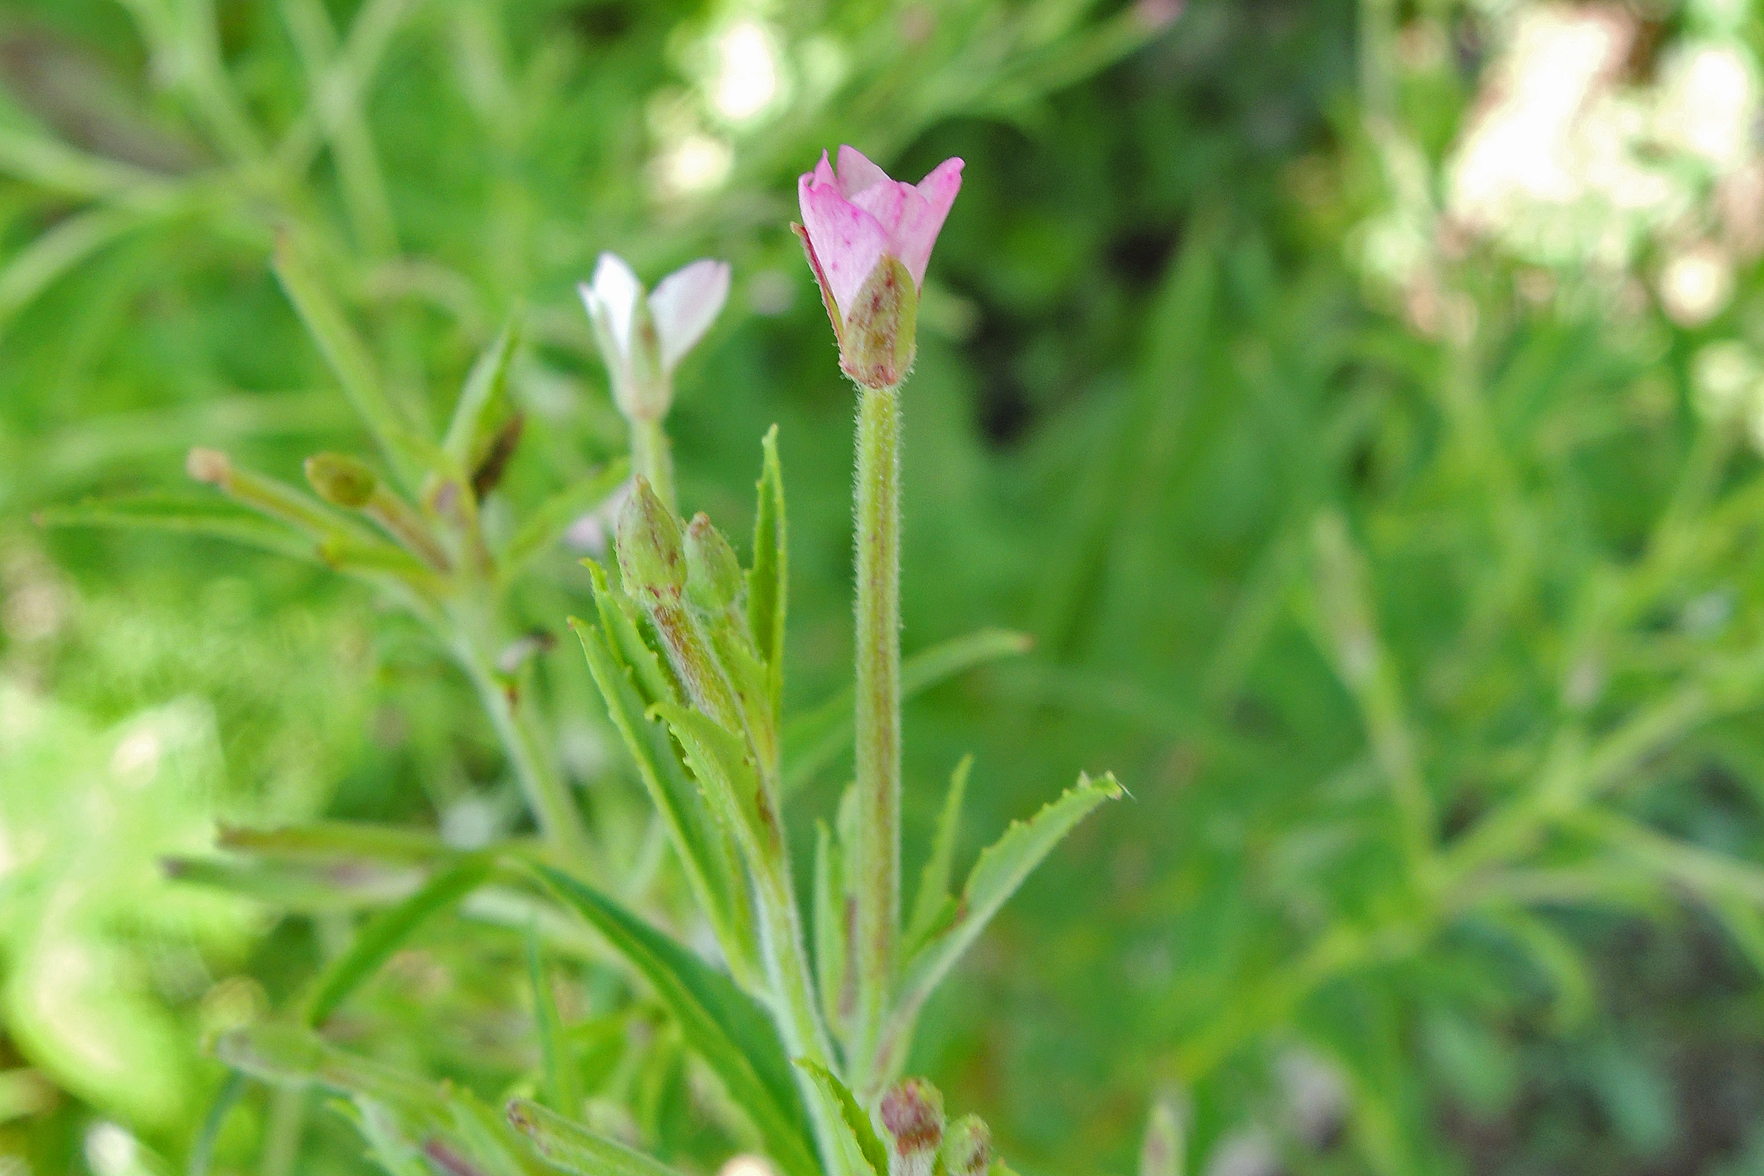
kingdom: Plantae
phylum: Tracheophyta
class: Magnoliopsida
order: Myrtales
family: Onagraceae
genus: Epilobium
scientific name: Epilobium coloratum
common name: Bronze willowherb
